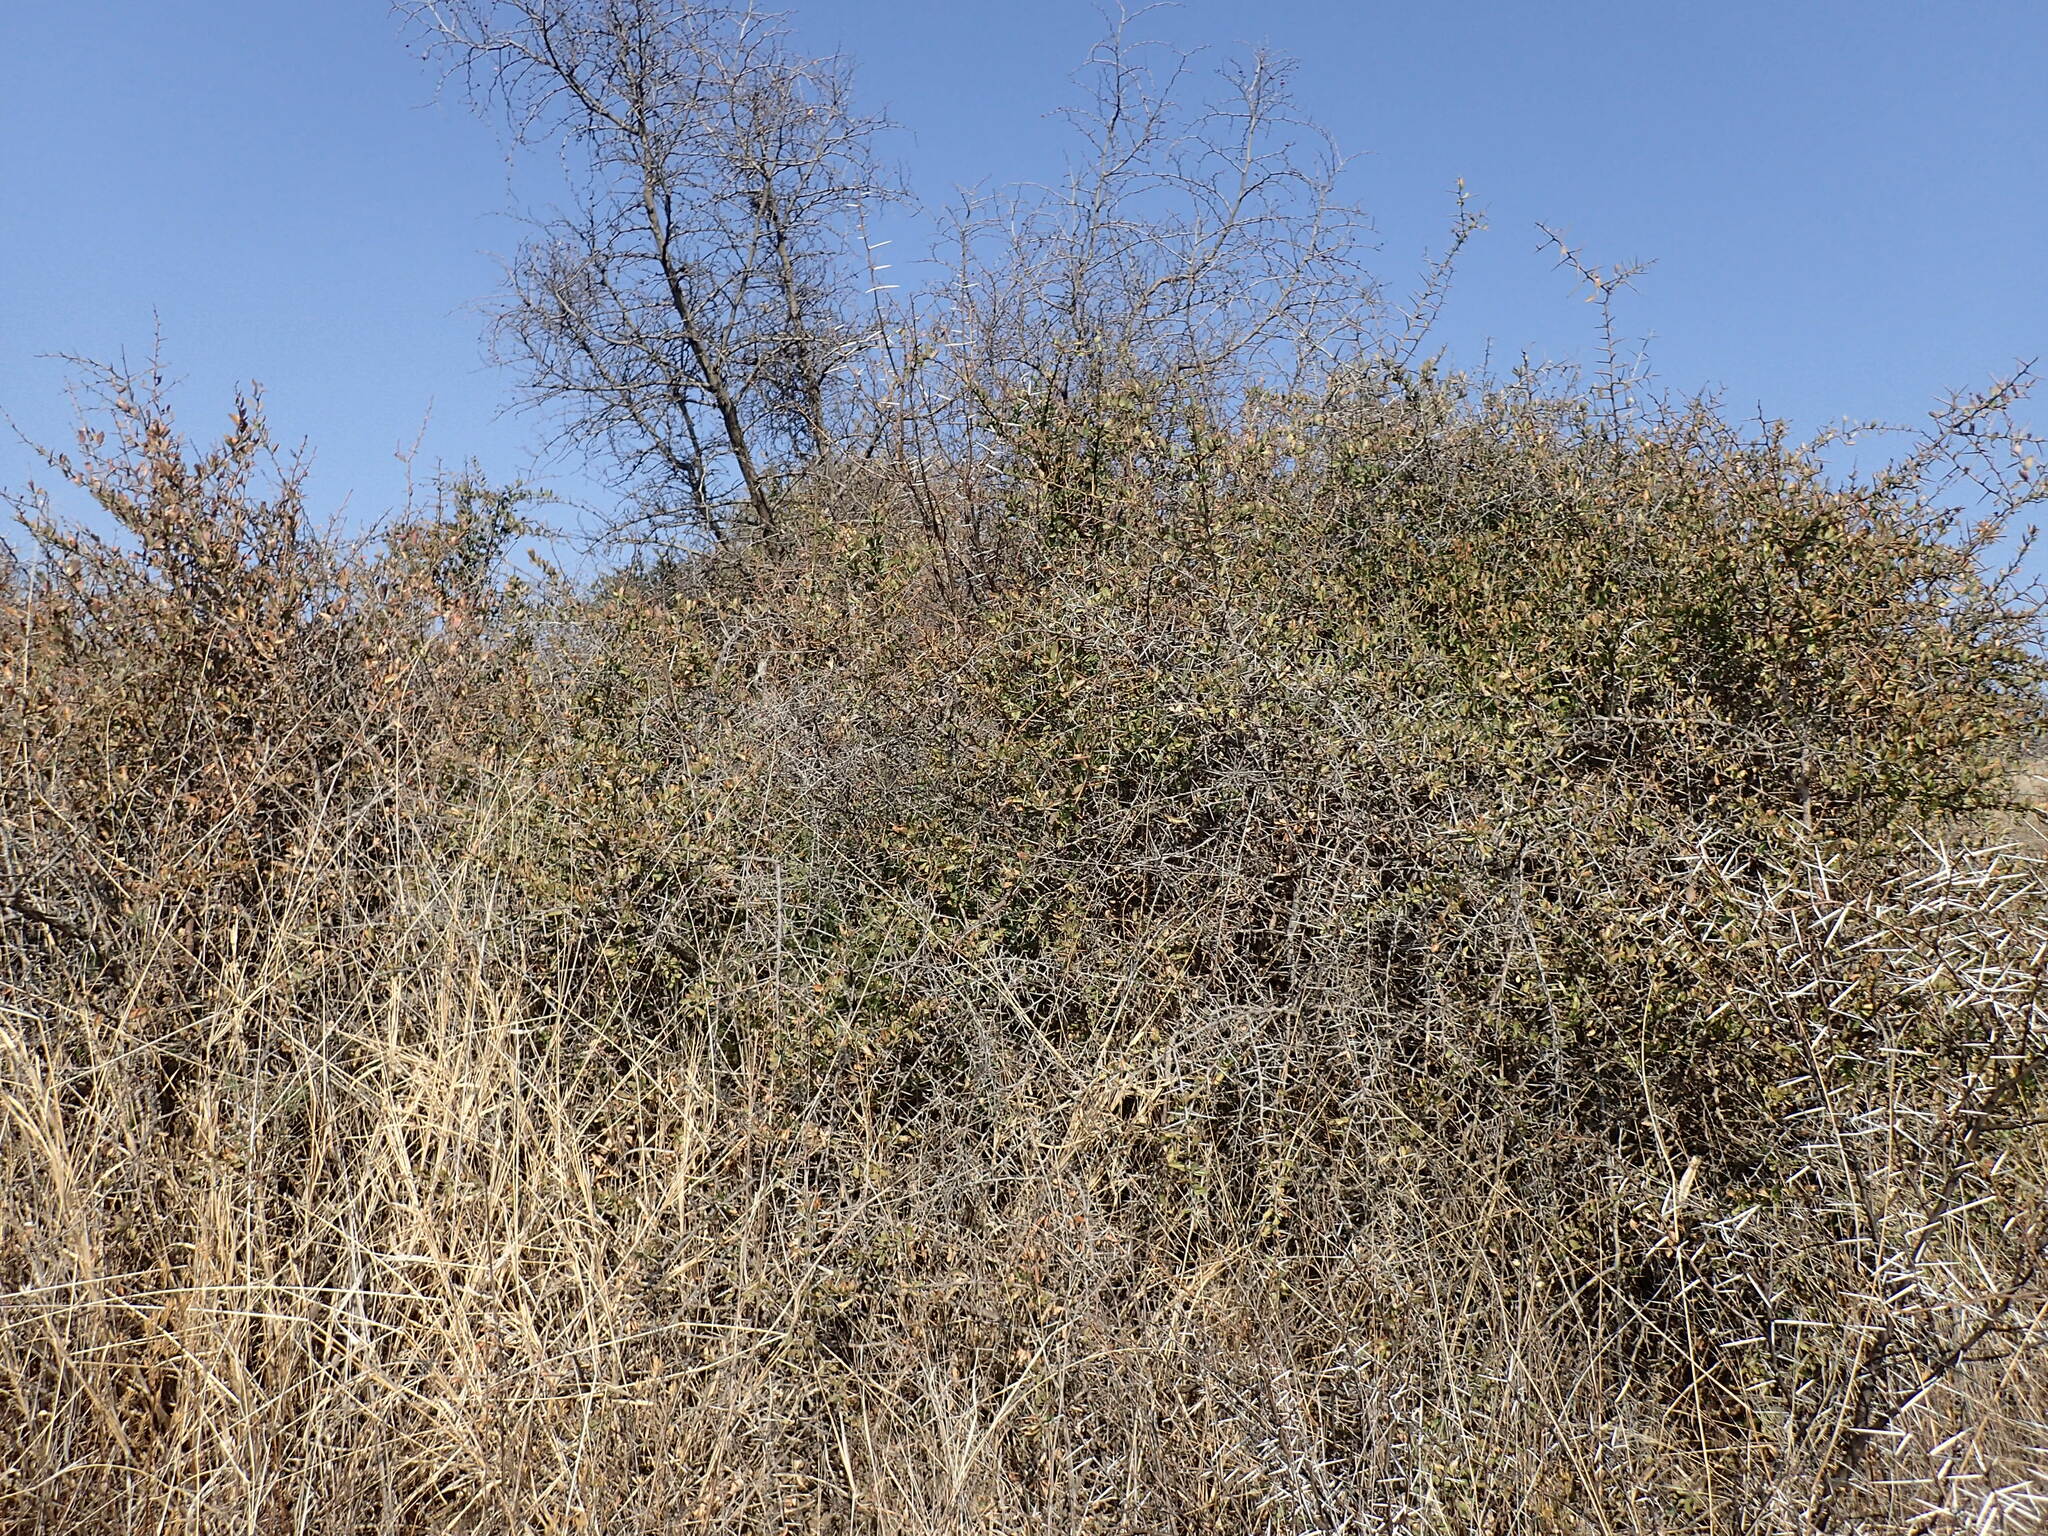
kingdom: Plantae
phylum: Tracheophyta
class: Magnoliopsida
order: Celastrales
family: Celastraceae
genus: Gymnosporia
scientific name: Gymnosporia buxifolia
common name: Common spike-thorn
